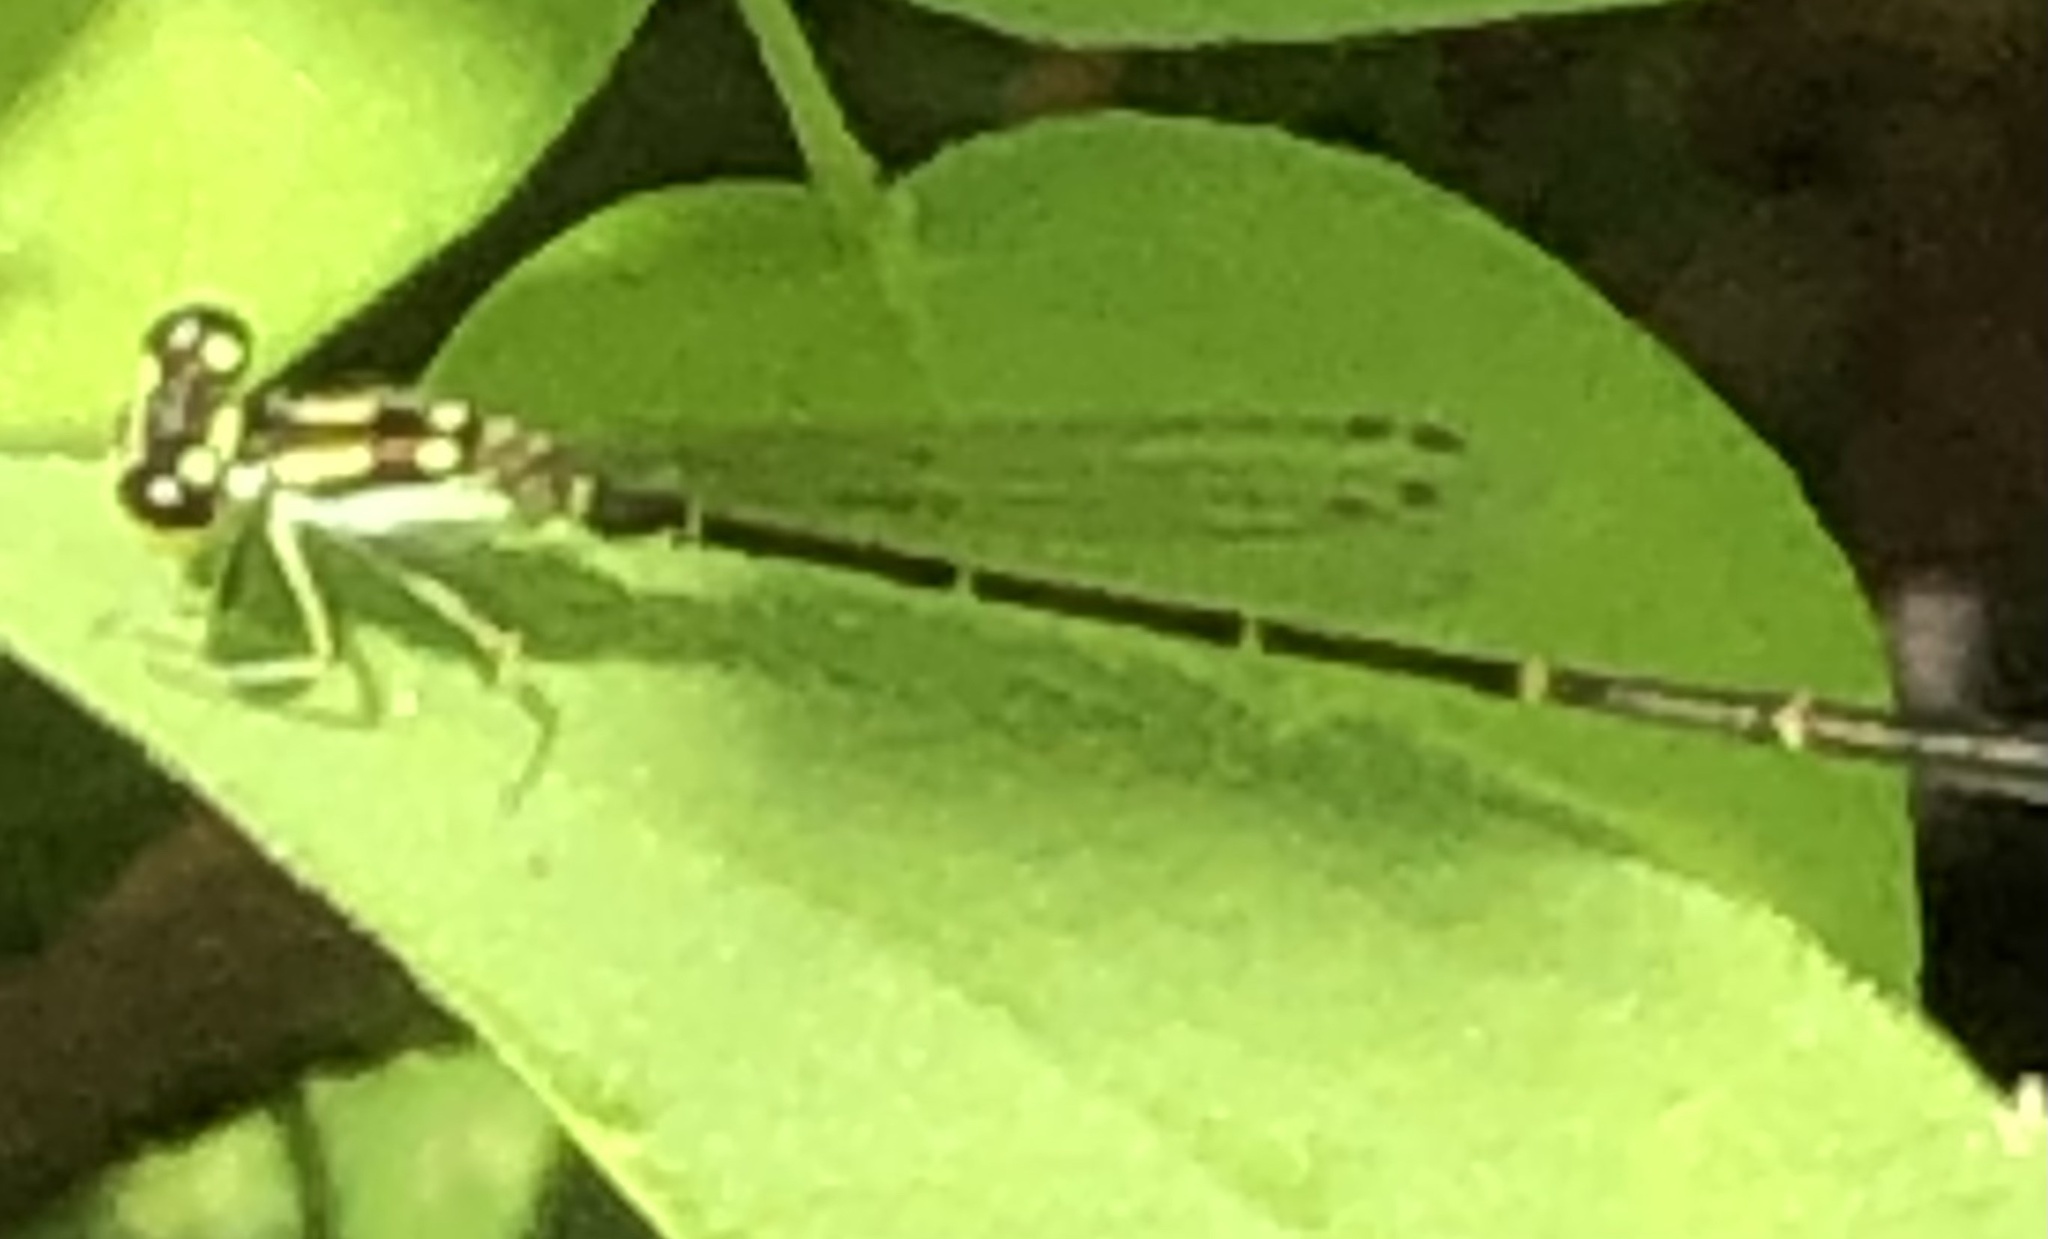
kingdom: Animalia
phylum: Arthropoda
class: Insecta
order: Odonata
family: Coenagrionidae
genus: Ischnura
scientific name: Ischnura posita
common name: Fragile forktail
